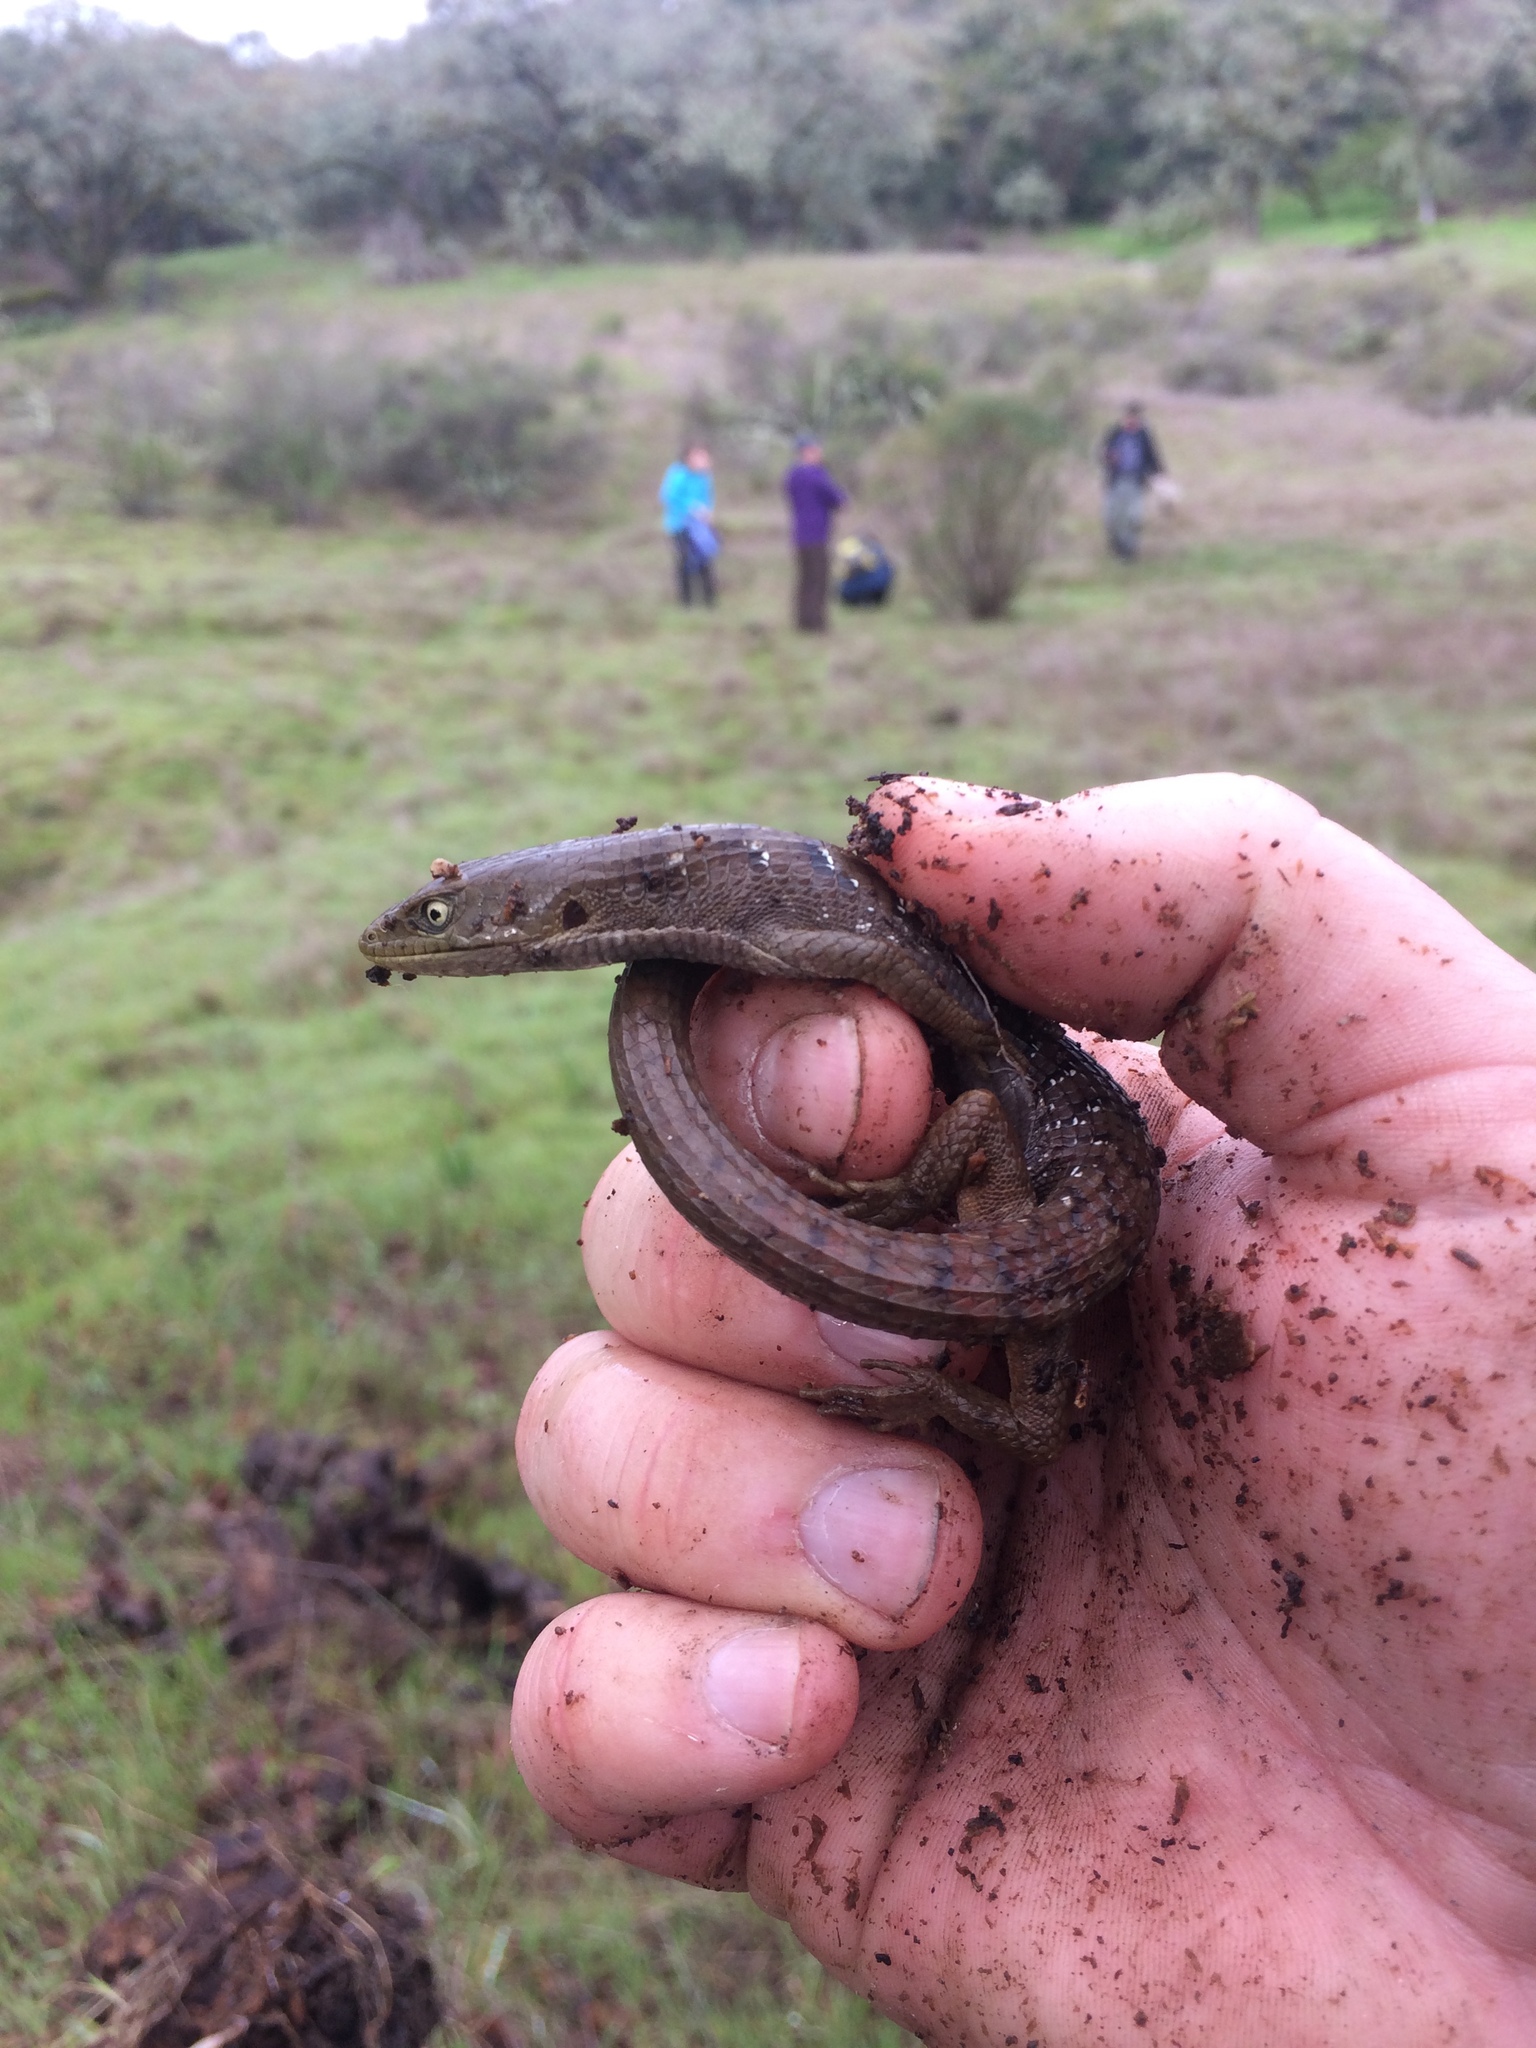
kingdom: Animalia
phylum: Chordata
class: Squamata
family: Anguidae
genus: Elgaria
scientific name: Elgaria multicarinata
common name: Southern alligator lizard
